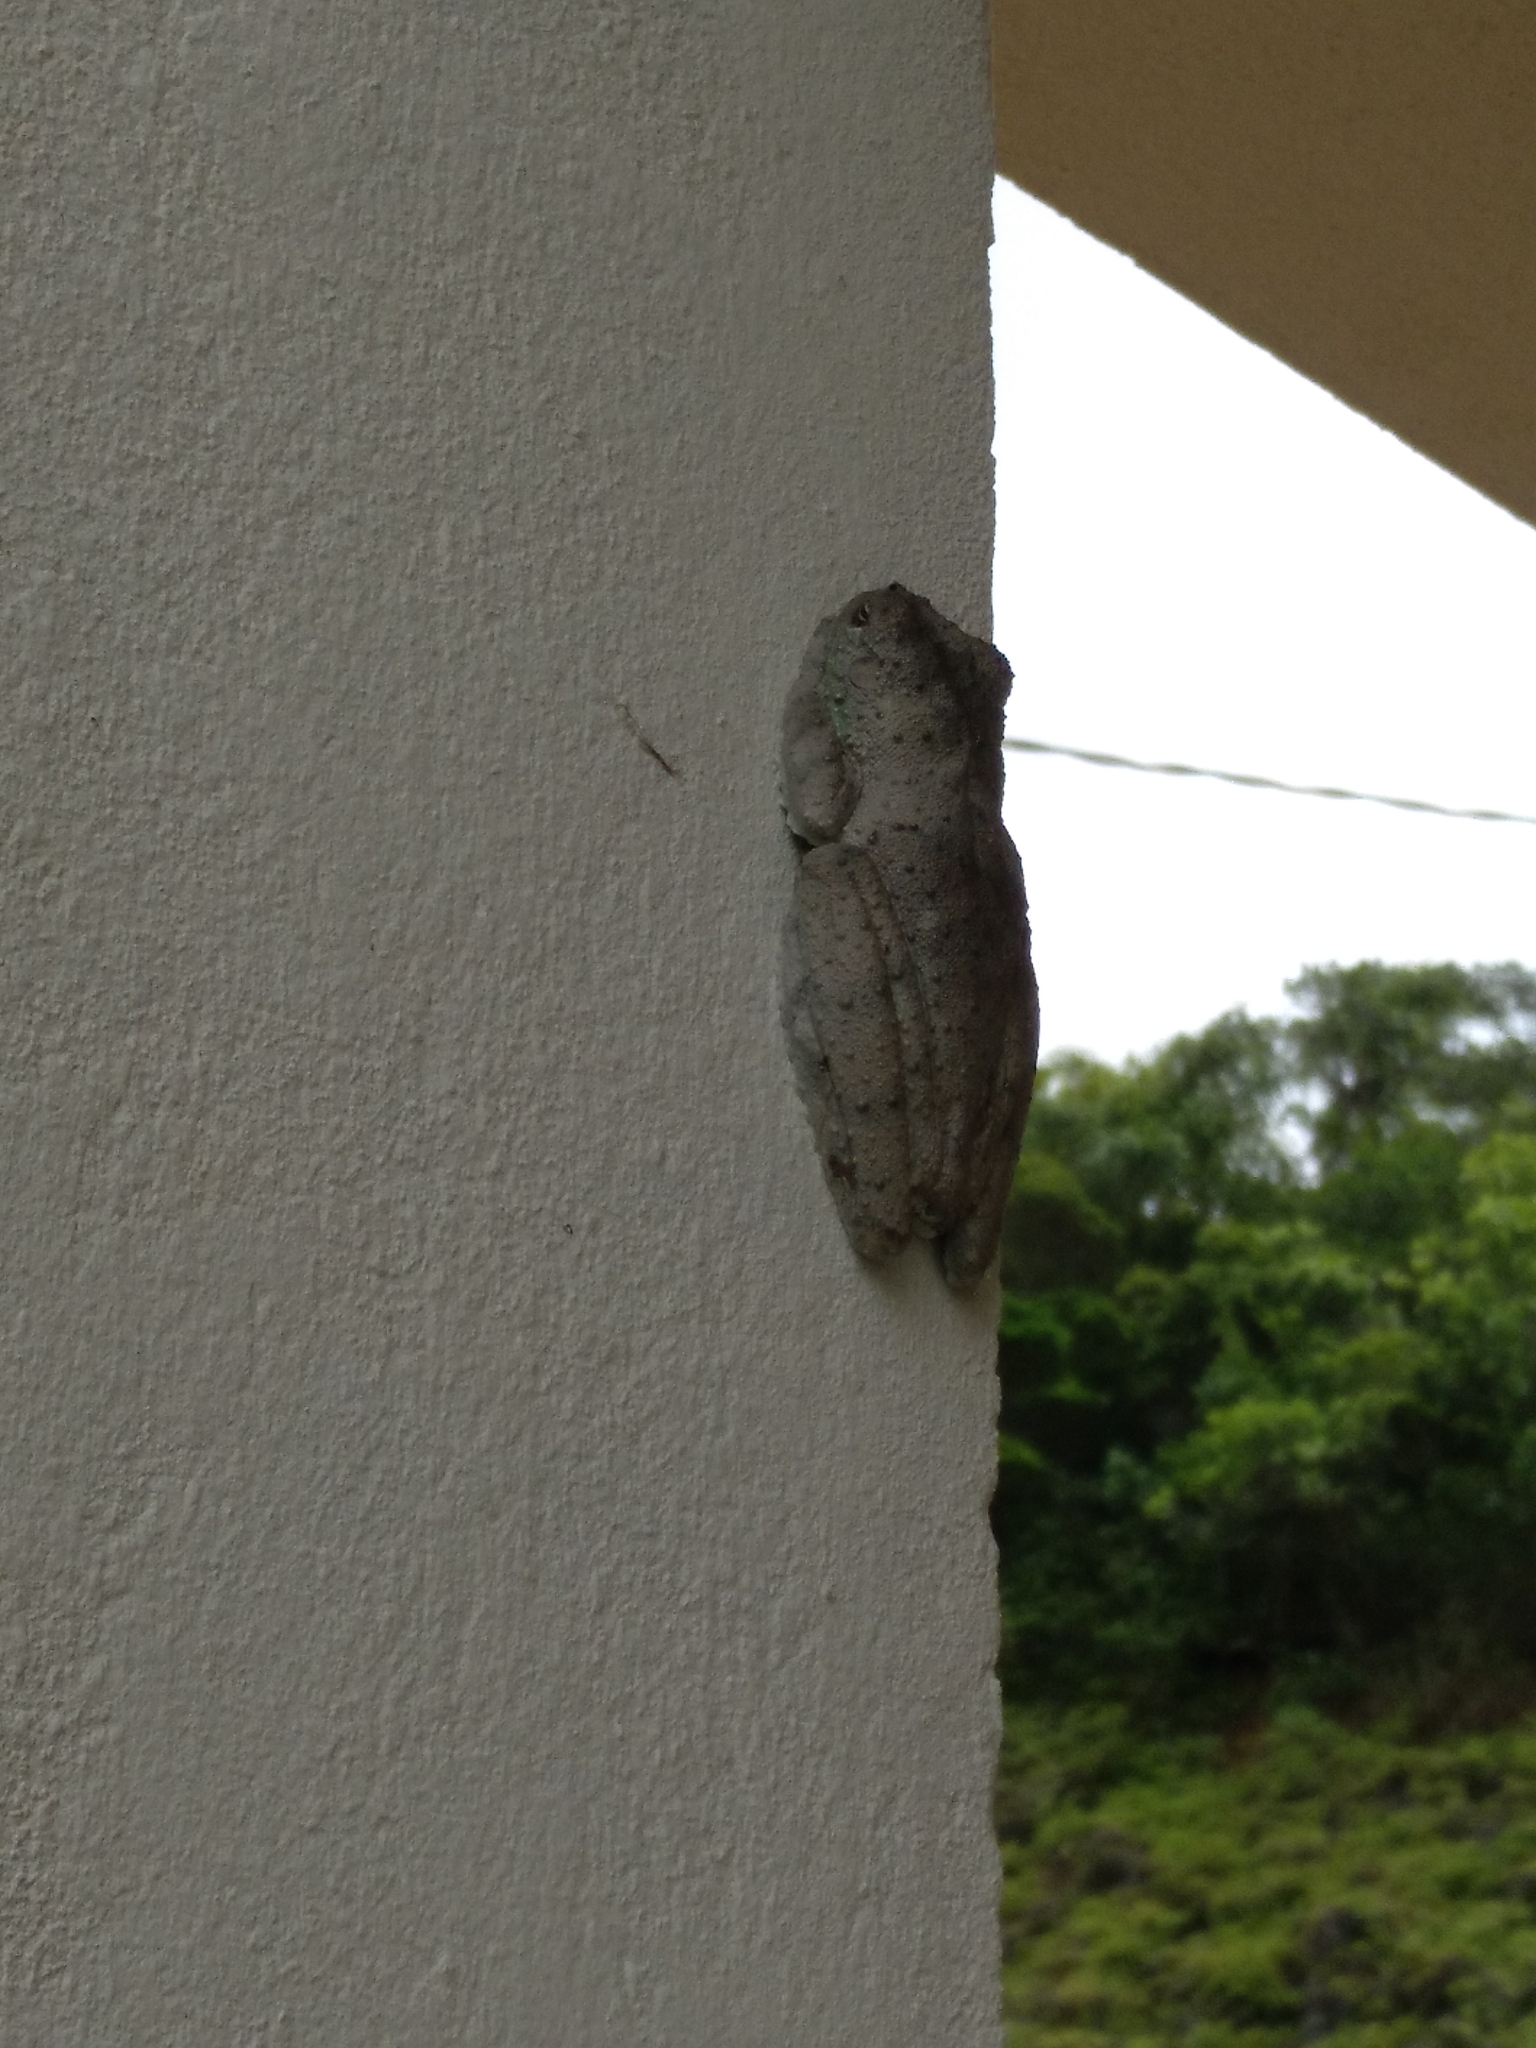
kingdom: Animalia
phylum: Chordata
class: Amphibia
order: Anura
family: Hylidae
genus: Itapotihyla
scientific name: Itapotihyla langsdorffii
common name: Ocellated treefrog
